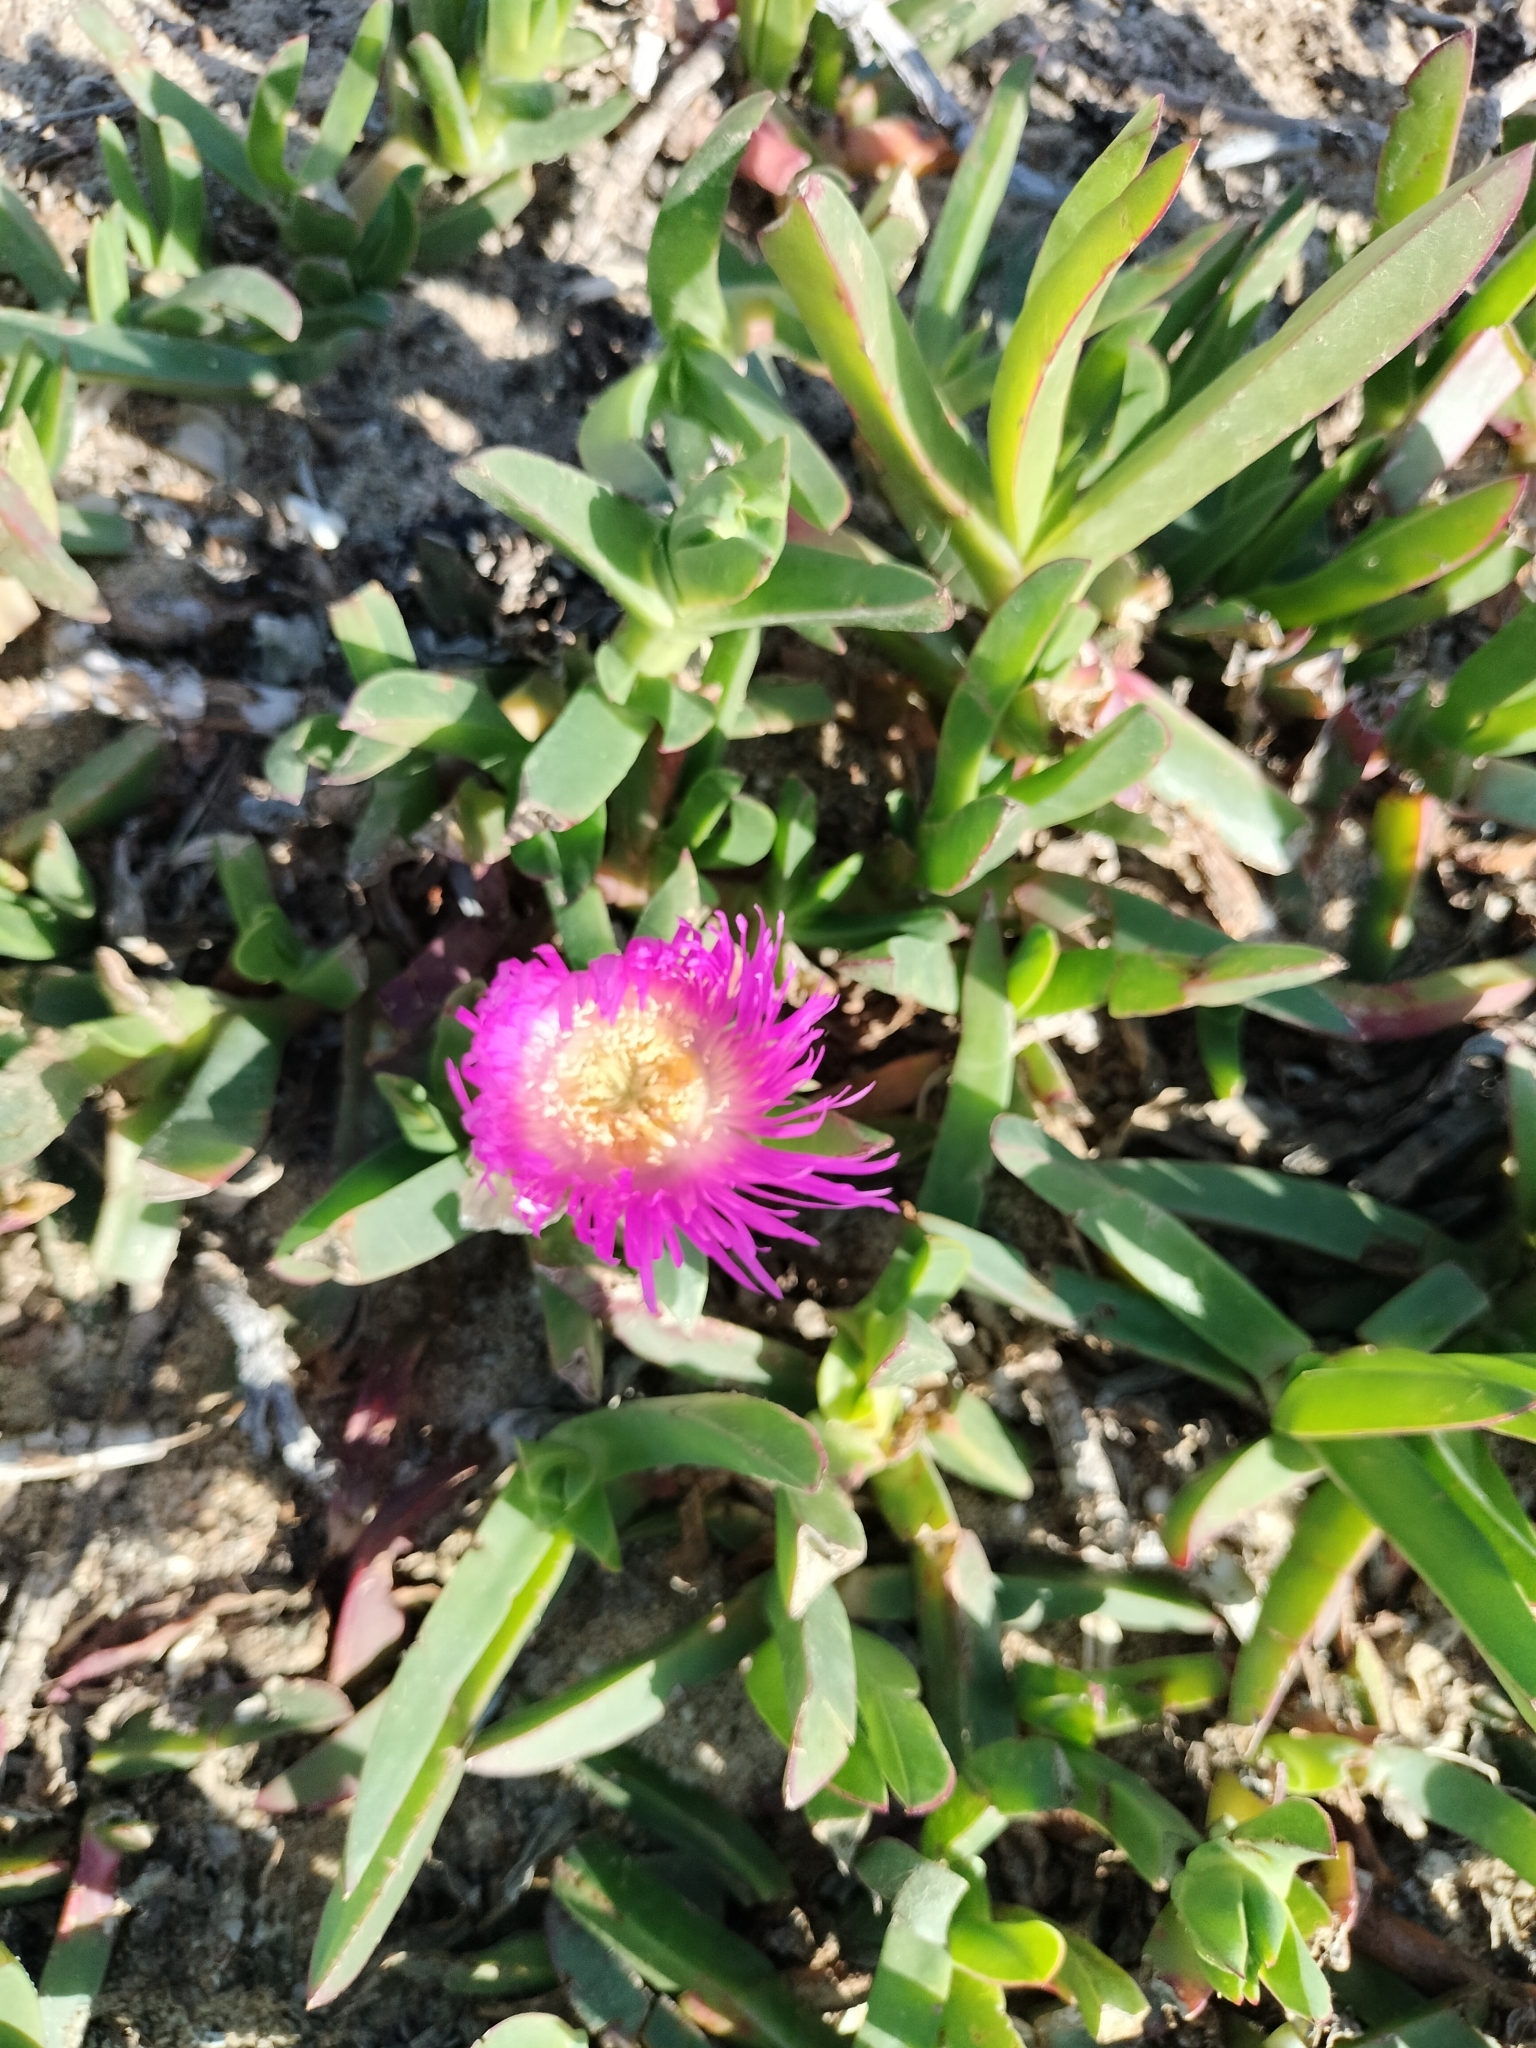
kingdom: Plantae
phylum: Tracheophyta
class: Magnoliopsida
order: Caryophyllales
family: Aizoaceae
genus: Carpobrotus
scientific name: Carpobrotus acinaciformis
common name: Sally-my-handsome
